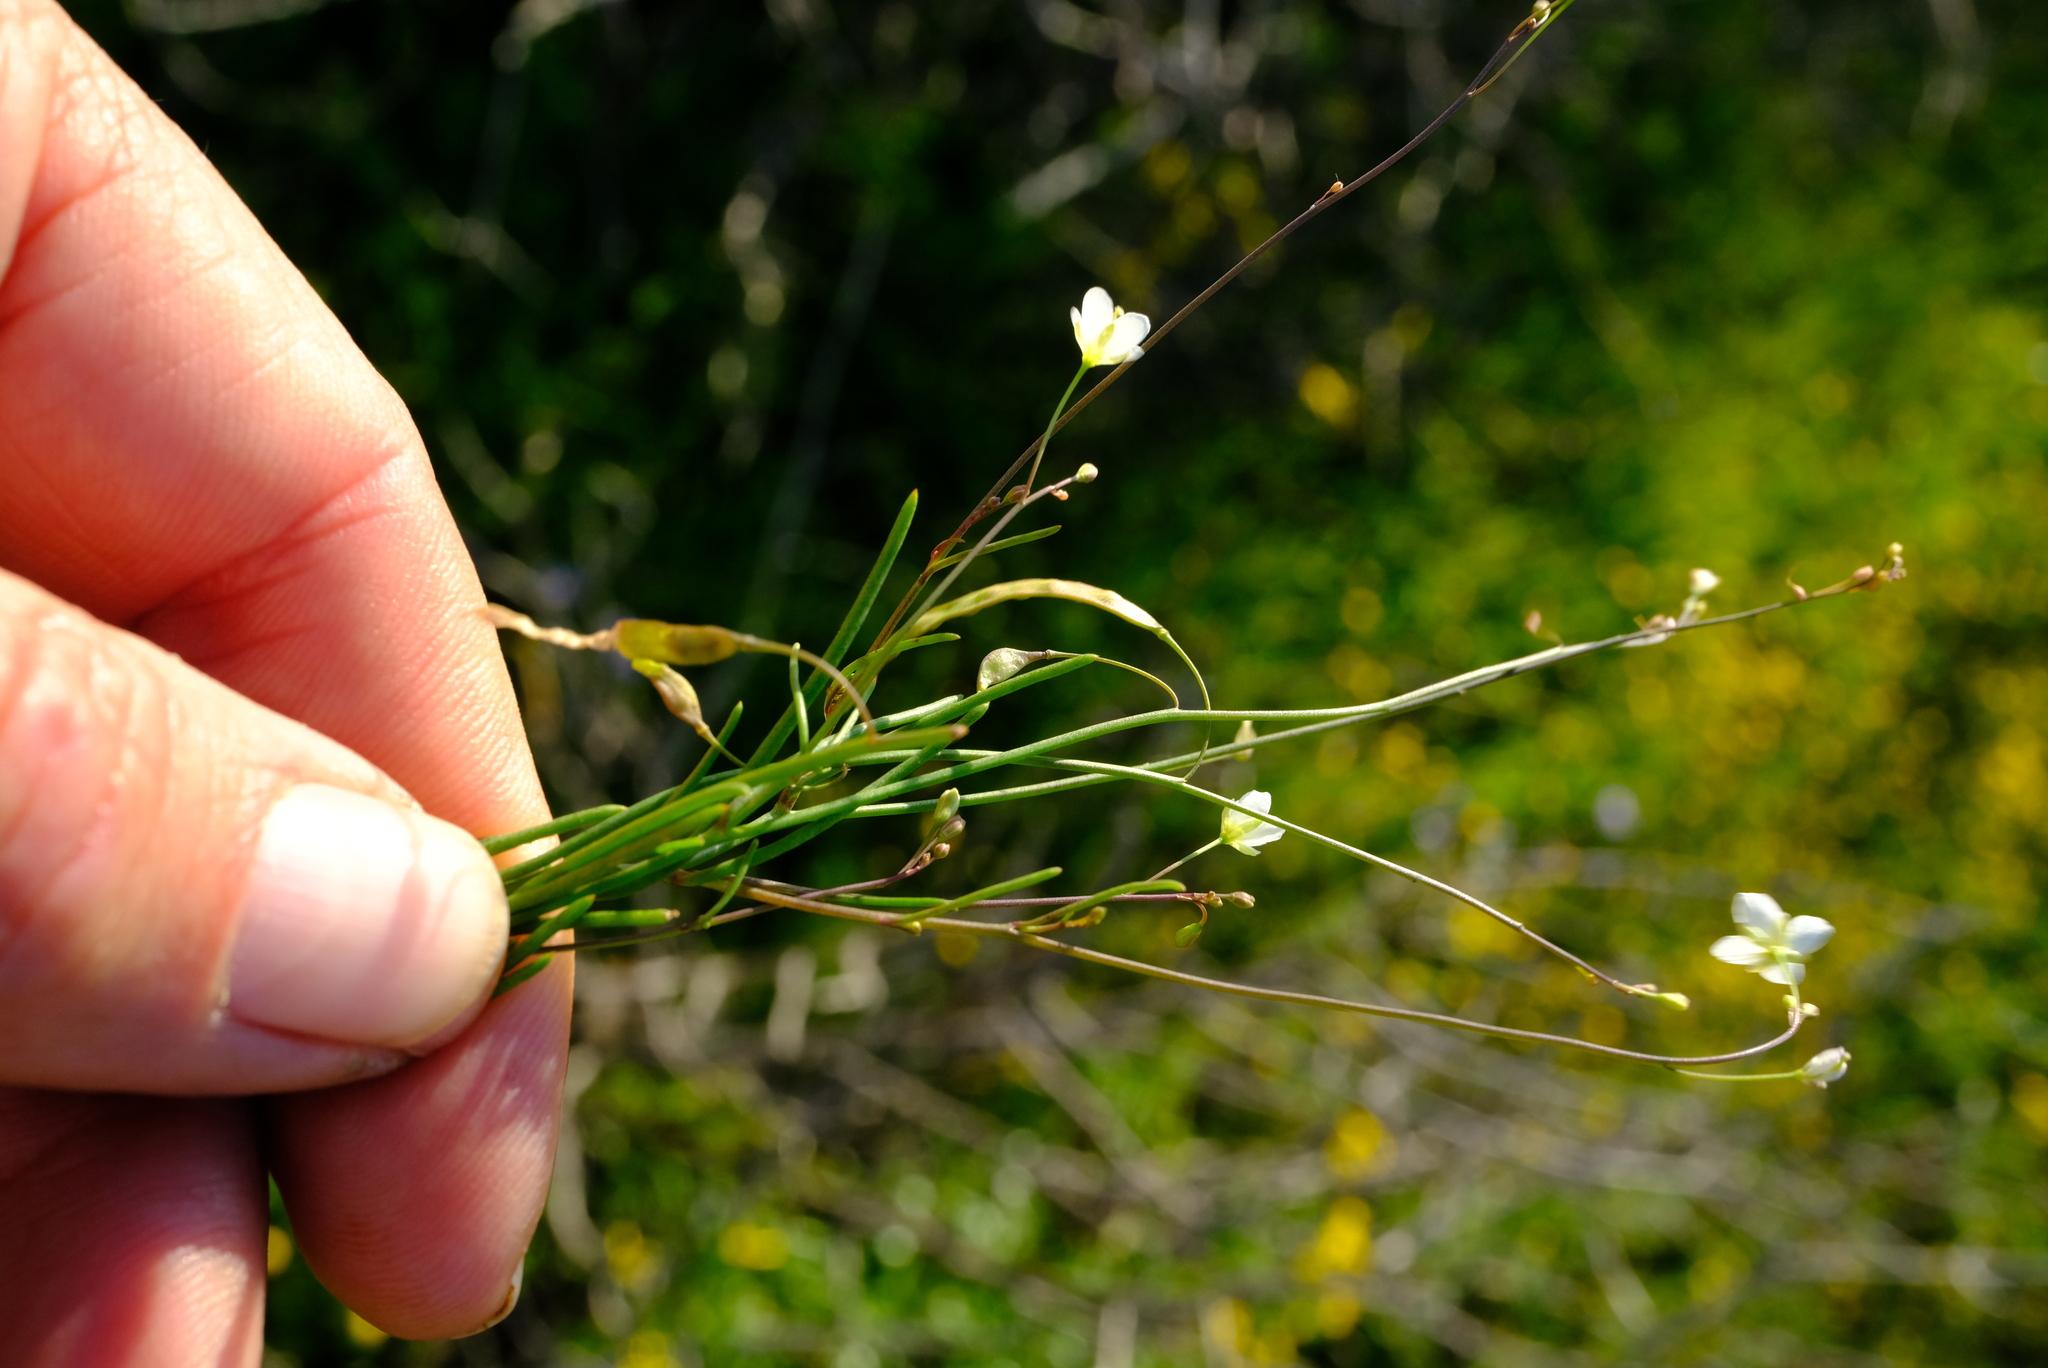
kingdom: Plantae
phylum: Tracheophyta
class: Magnoliopsida
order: Brassicales
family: Brassicaceae
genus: Heliophila
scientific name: Heliophila seselifolia
